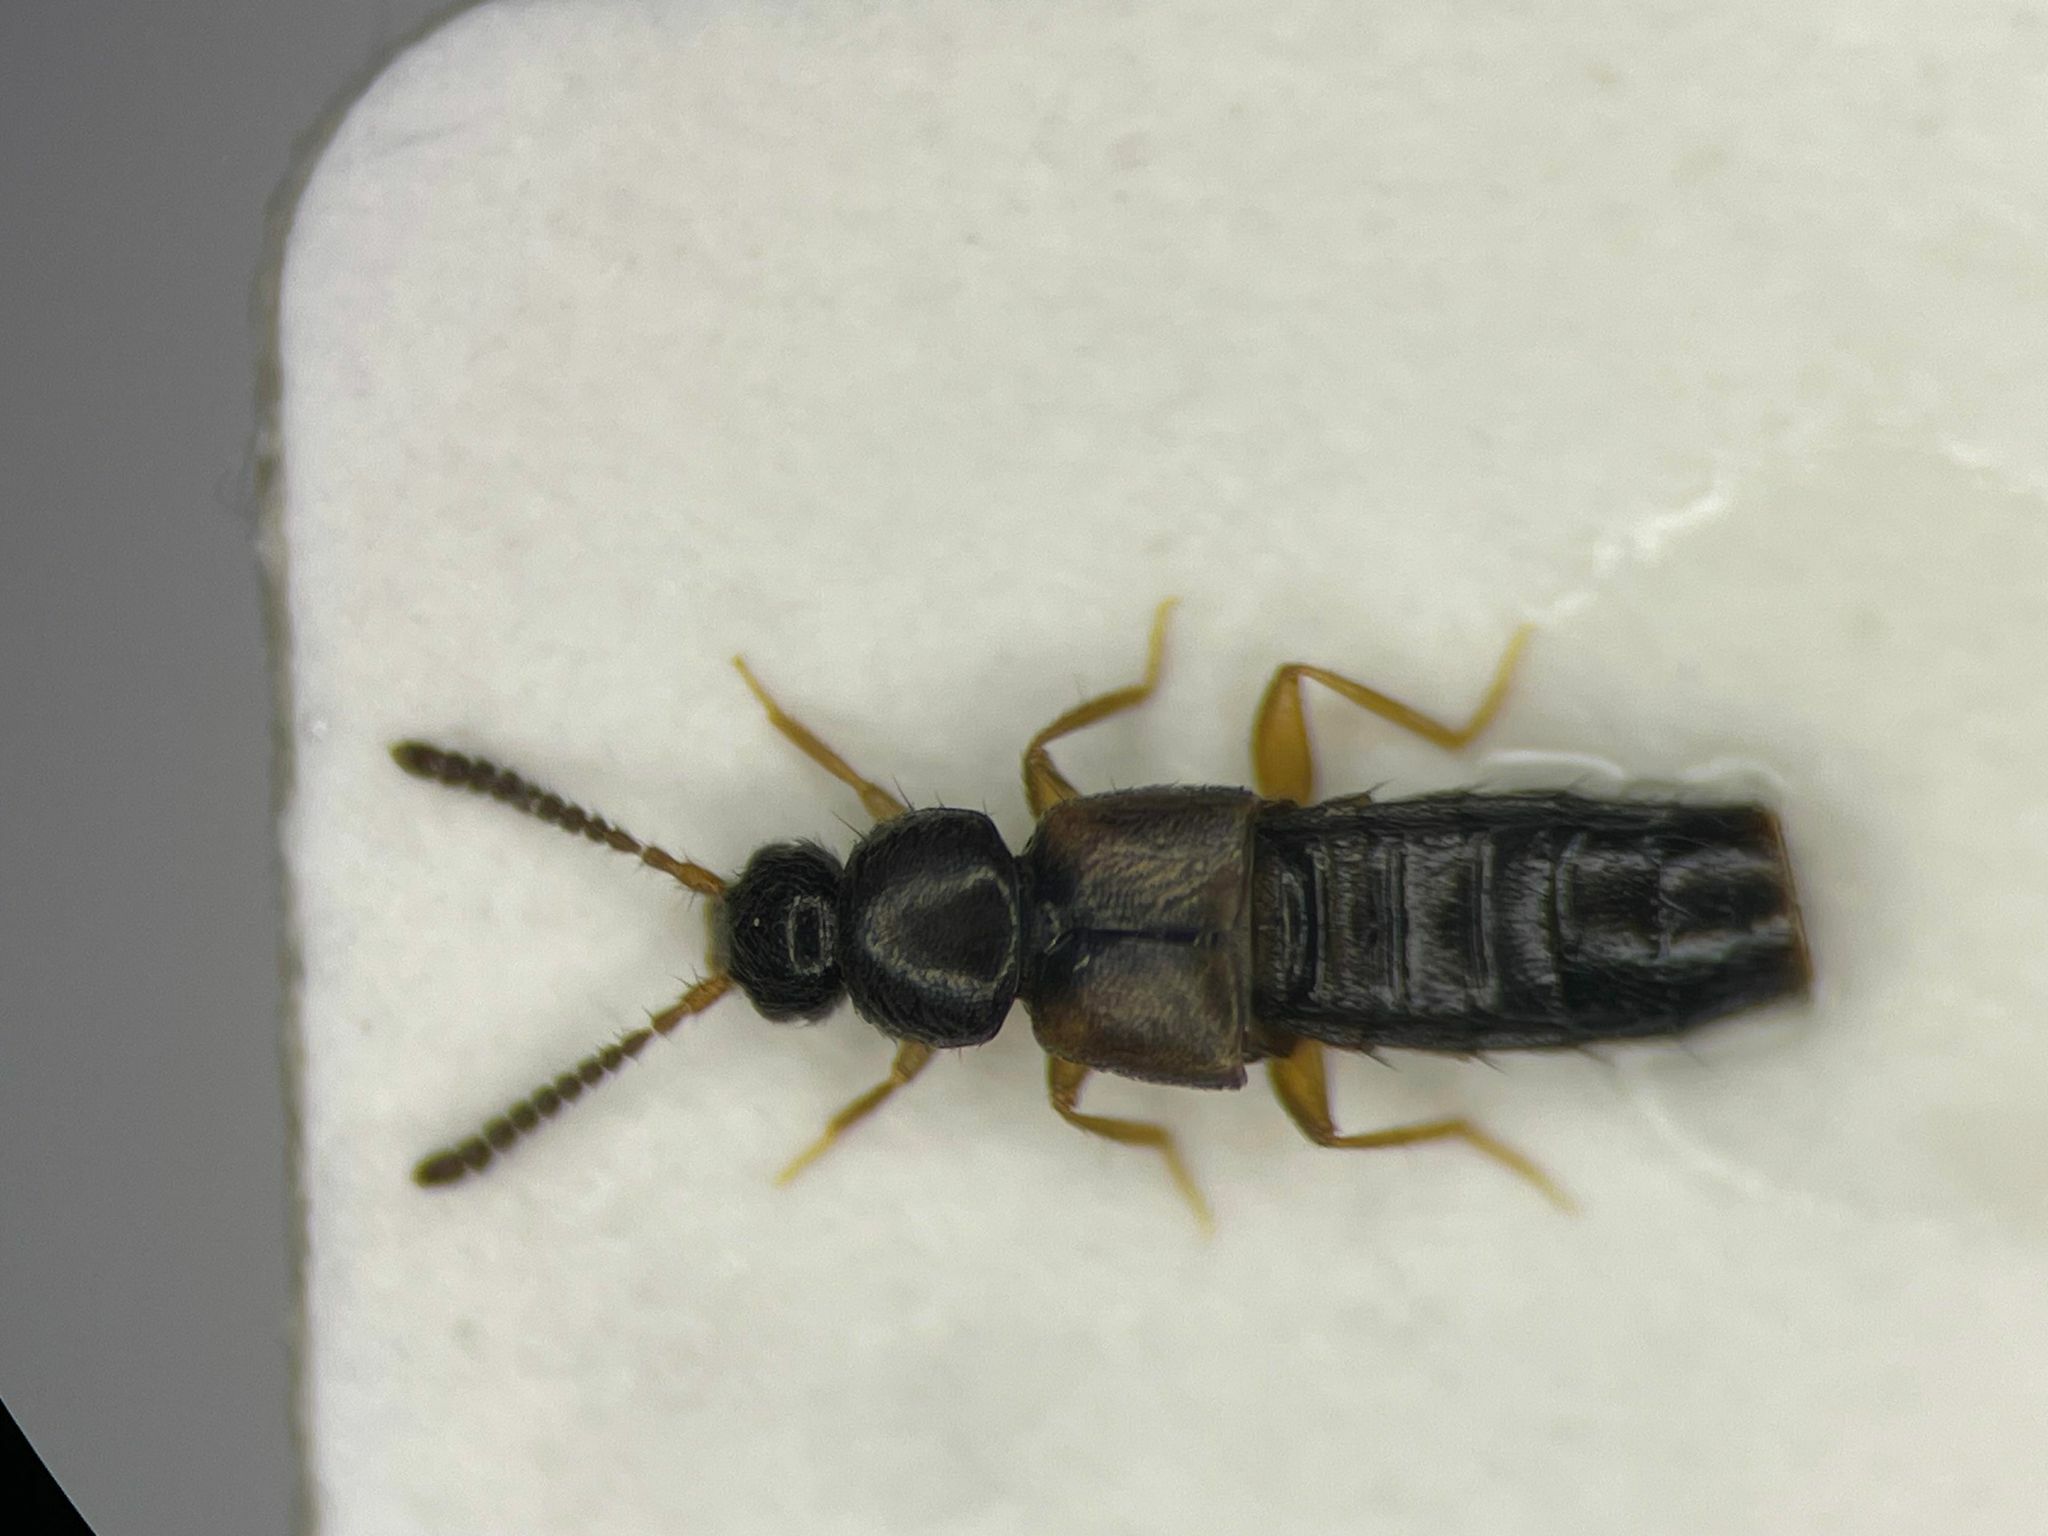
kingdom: Animalia
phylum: Arthropoda
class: Insecta
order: Coleoptera
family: Staphylinidae
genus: Atheta
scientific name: Atheta chartersensis
